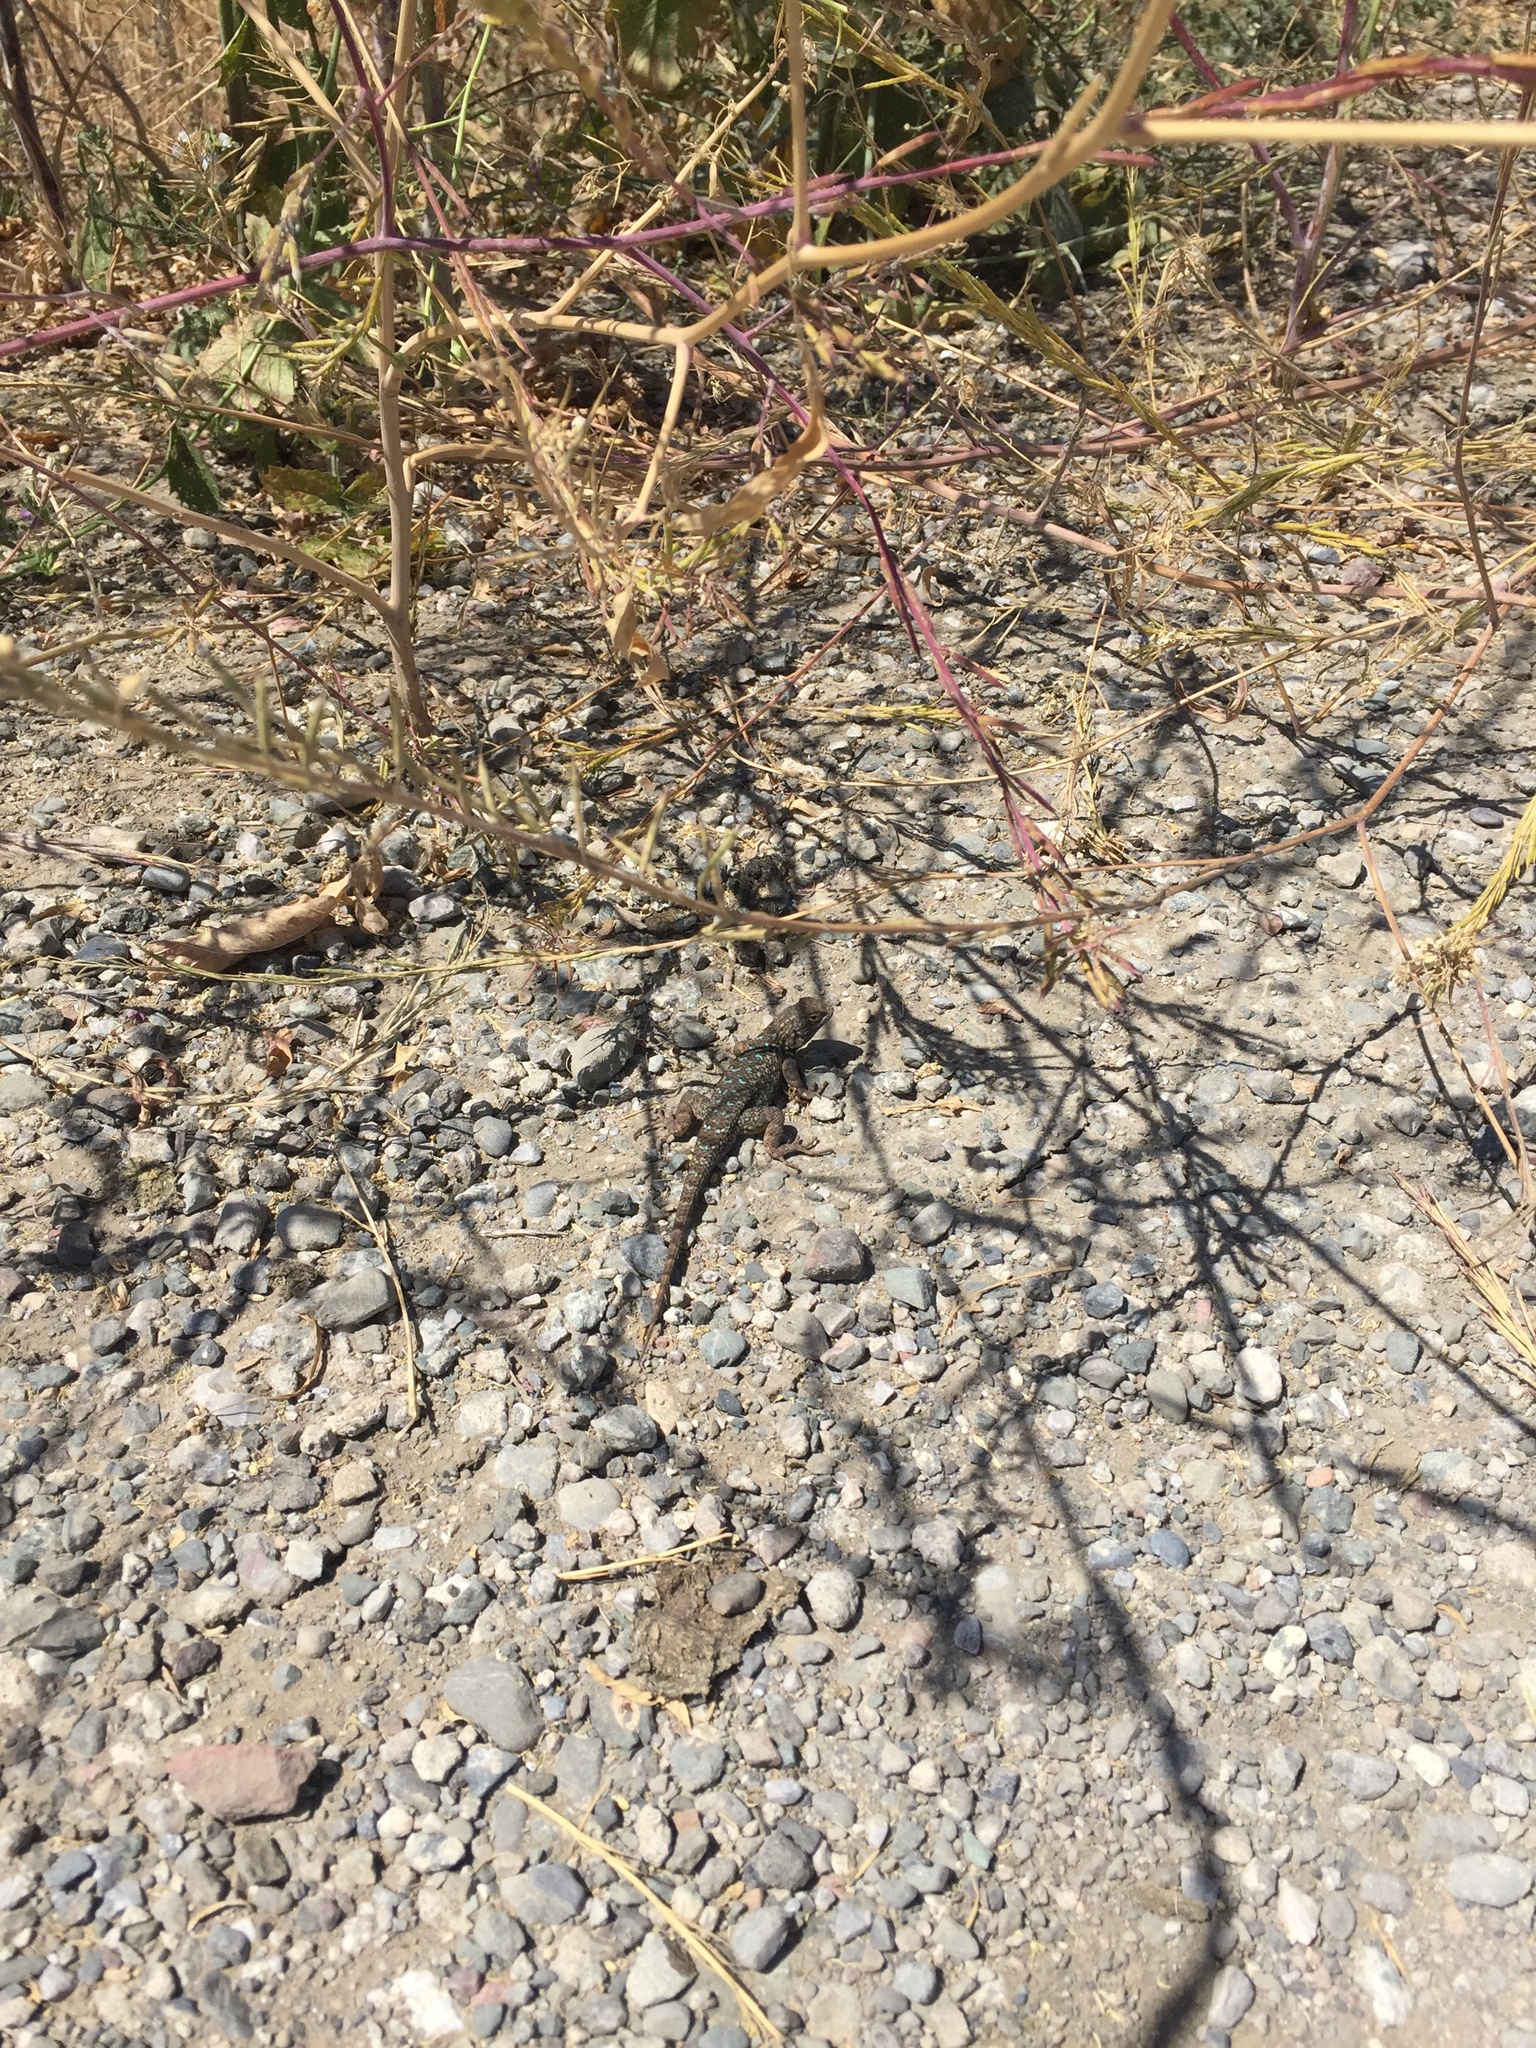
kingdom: Animalia
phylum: Chordata
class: Squamata
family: Phrynosomatidae
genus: Sceloporus
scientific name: Sceloporus occidentalis
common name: Western fence lizard
